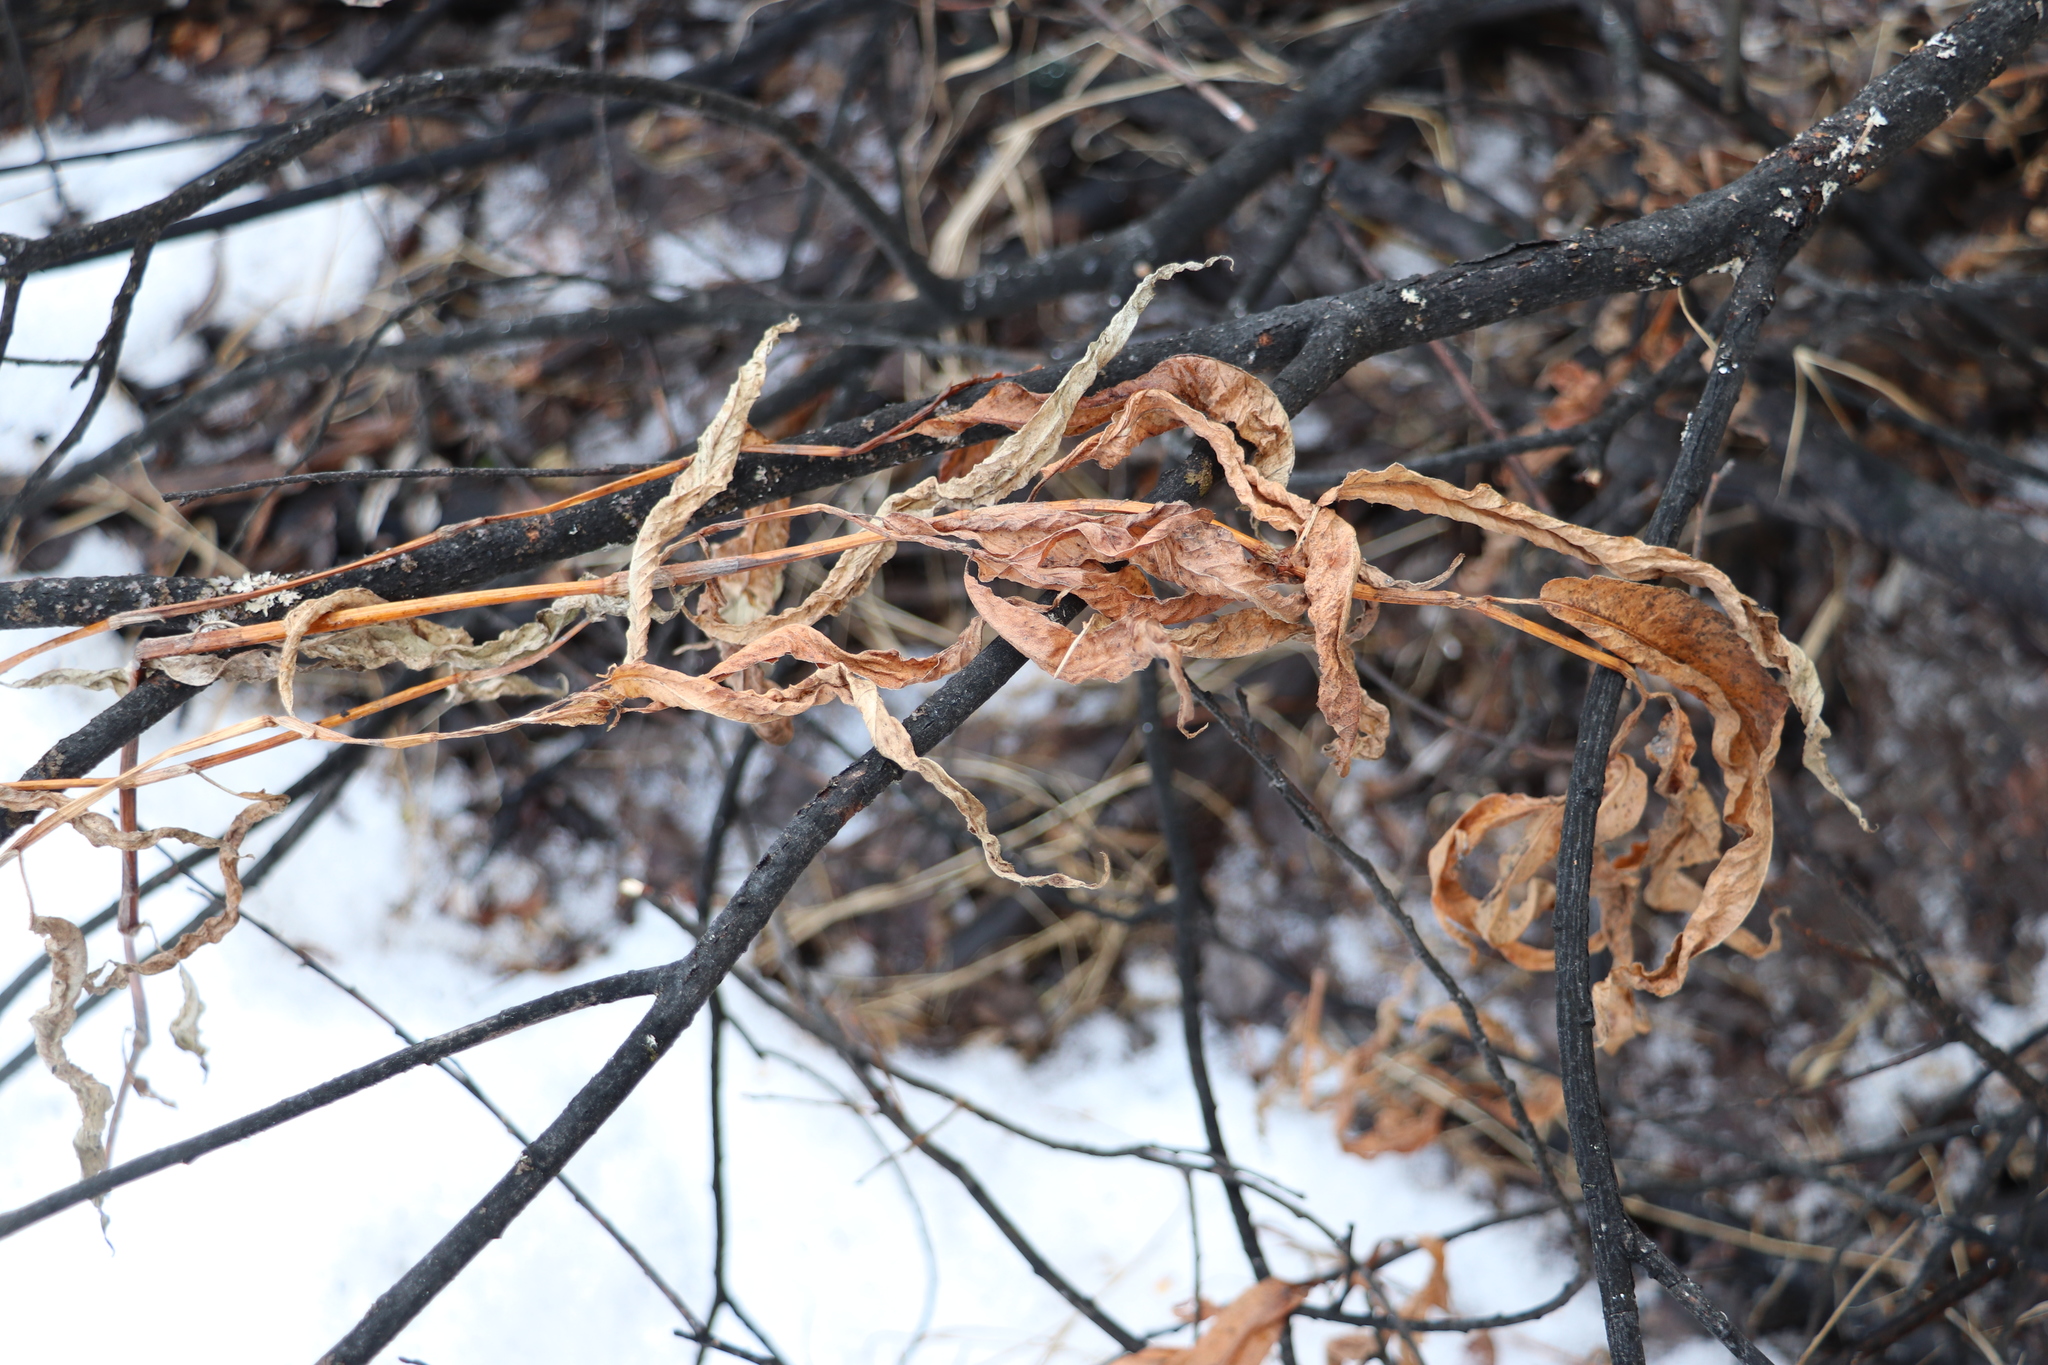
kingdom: Plantae
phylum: Tracheophyta
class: Magnoliopsida
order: Caryophyllales
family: Polygonaceae
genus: Persicaria
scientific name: Persicaria amphibia
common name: Amphibious bistort
